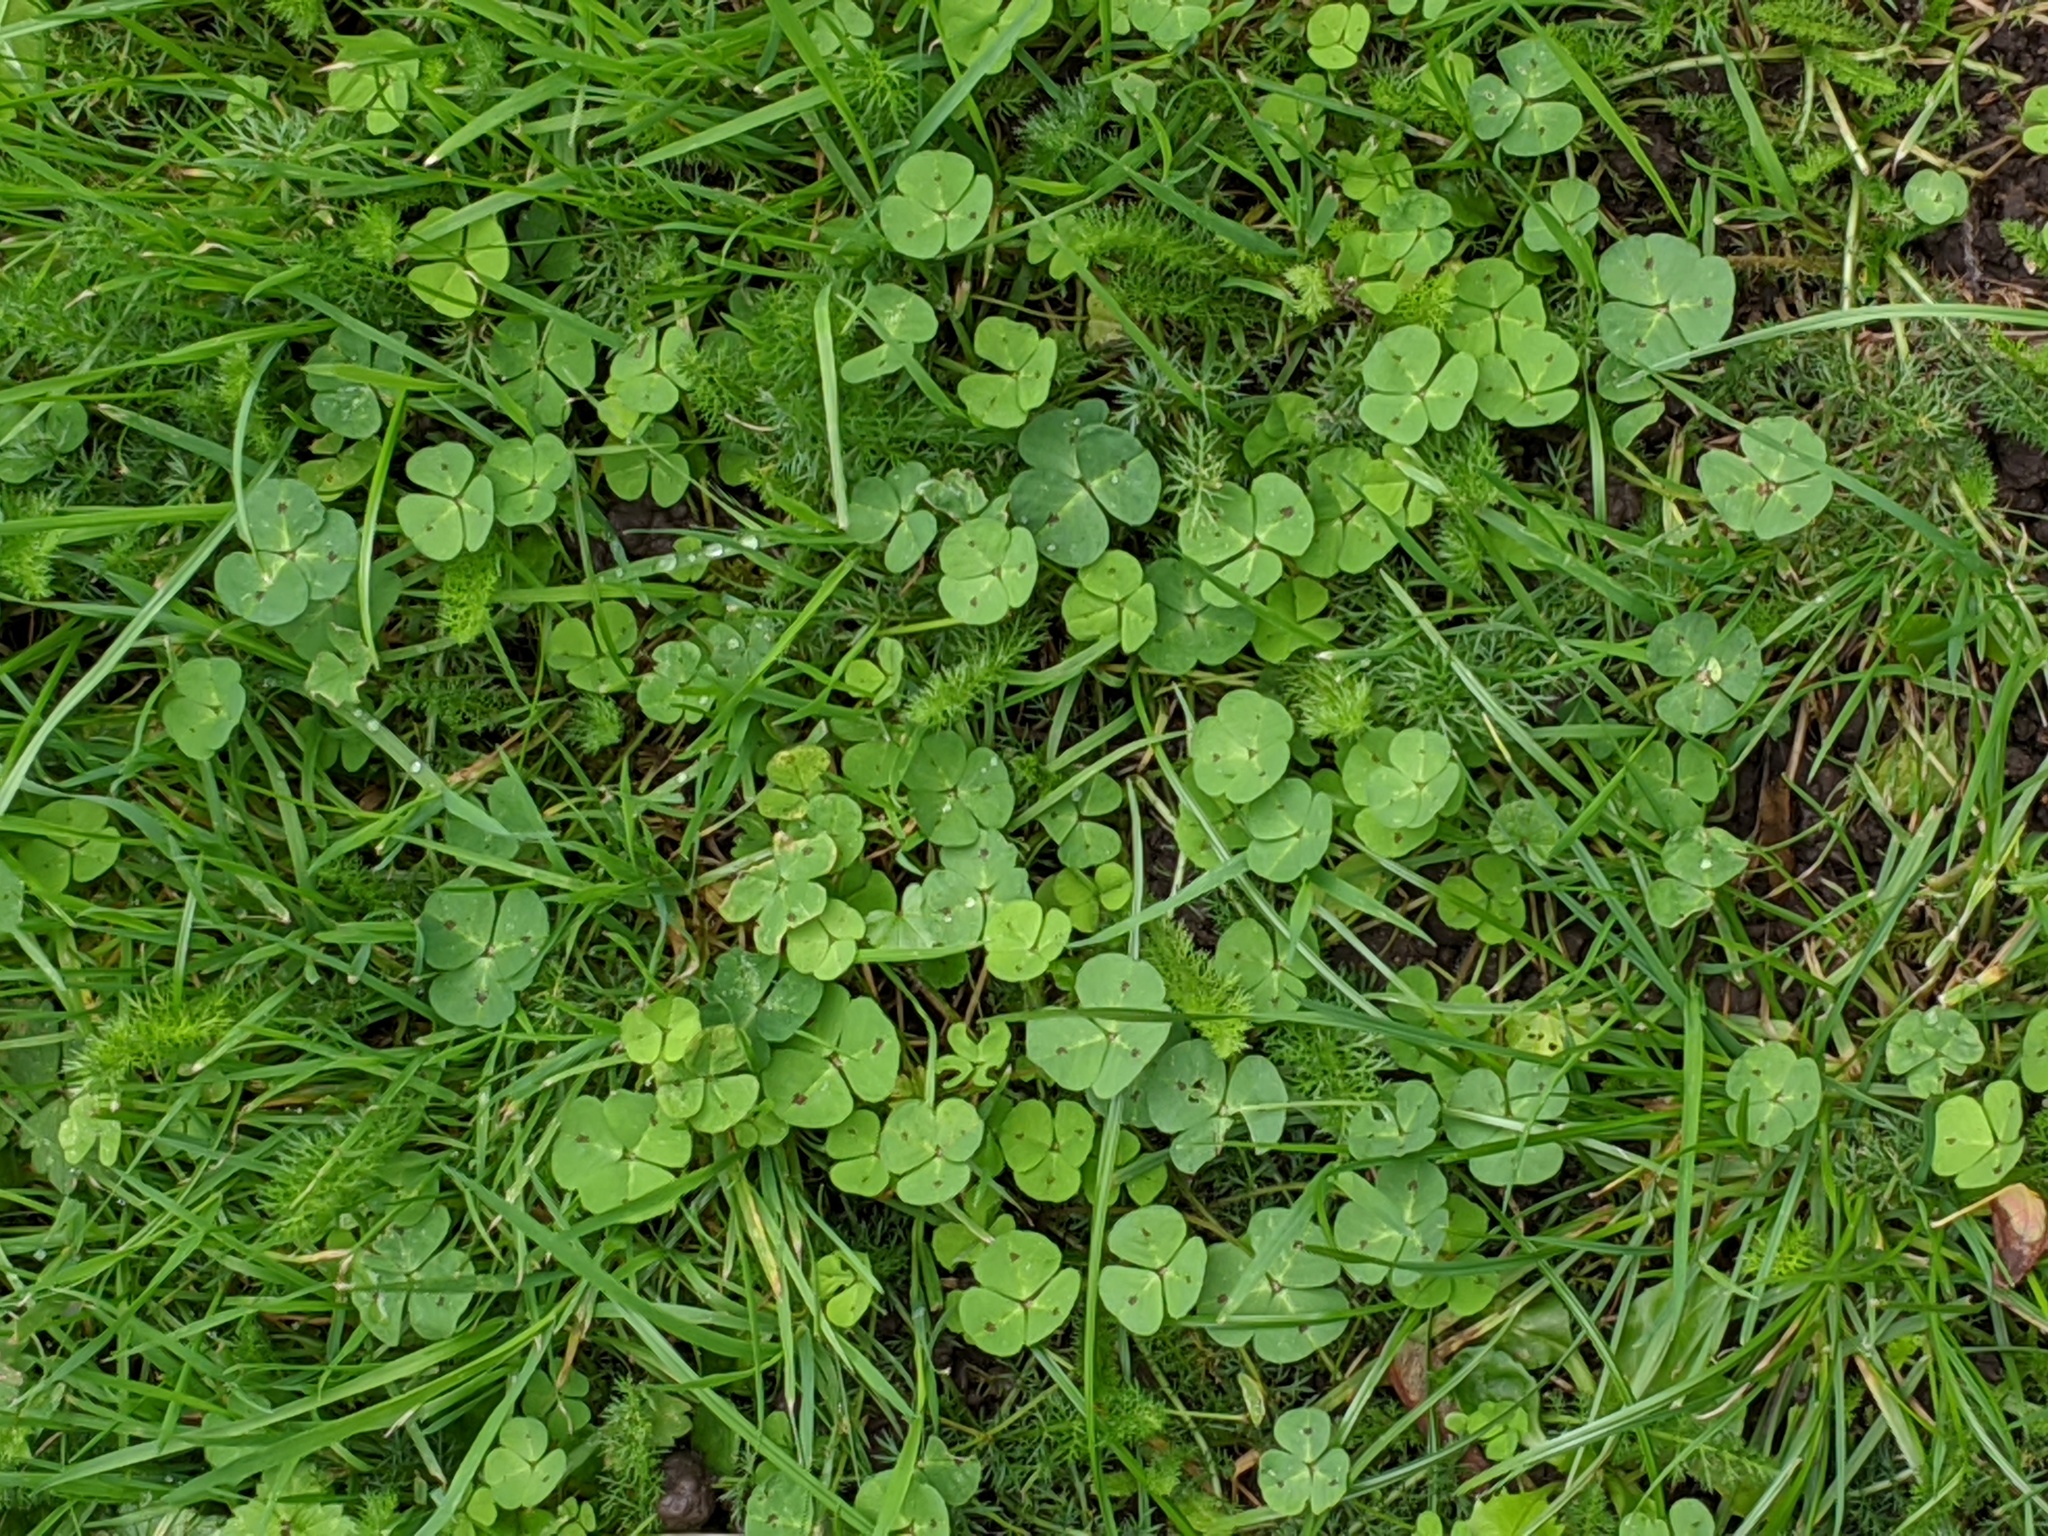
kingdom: Plantae
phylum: Tracheophyta
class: Magnoliopsida
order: Fabales
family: Fabaceae
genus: Medicago
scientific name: Medicago arabica
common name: Spotted medick
